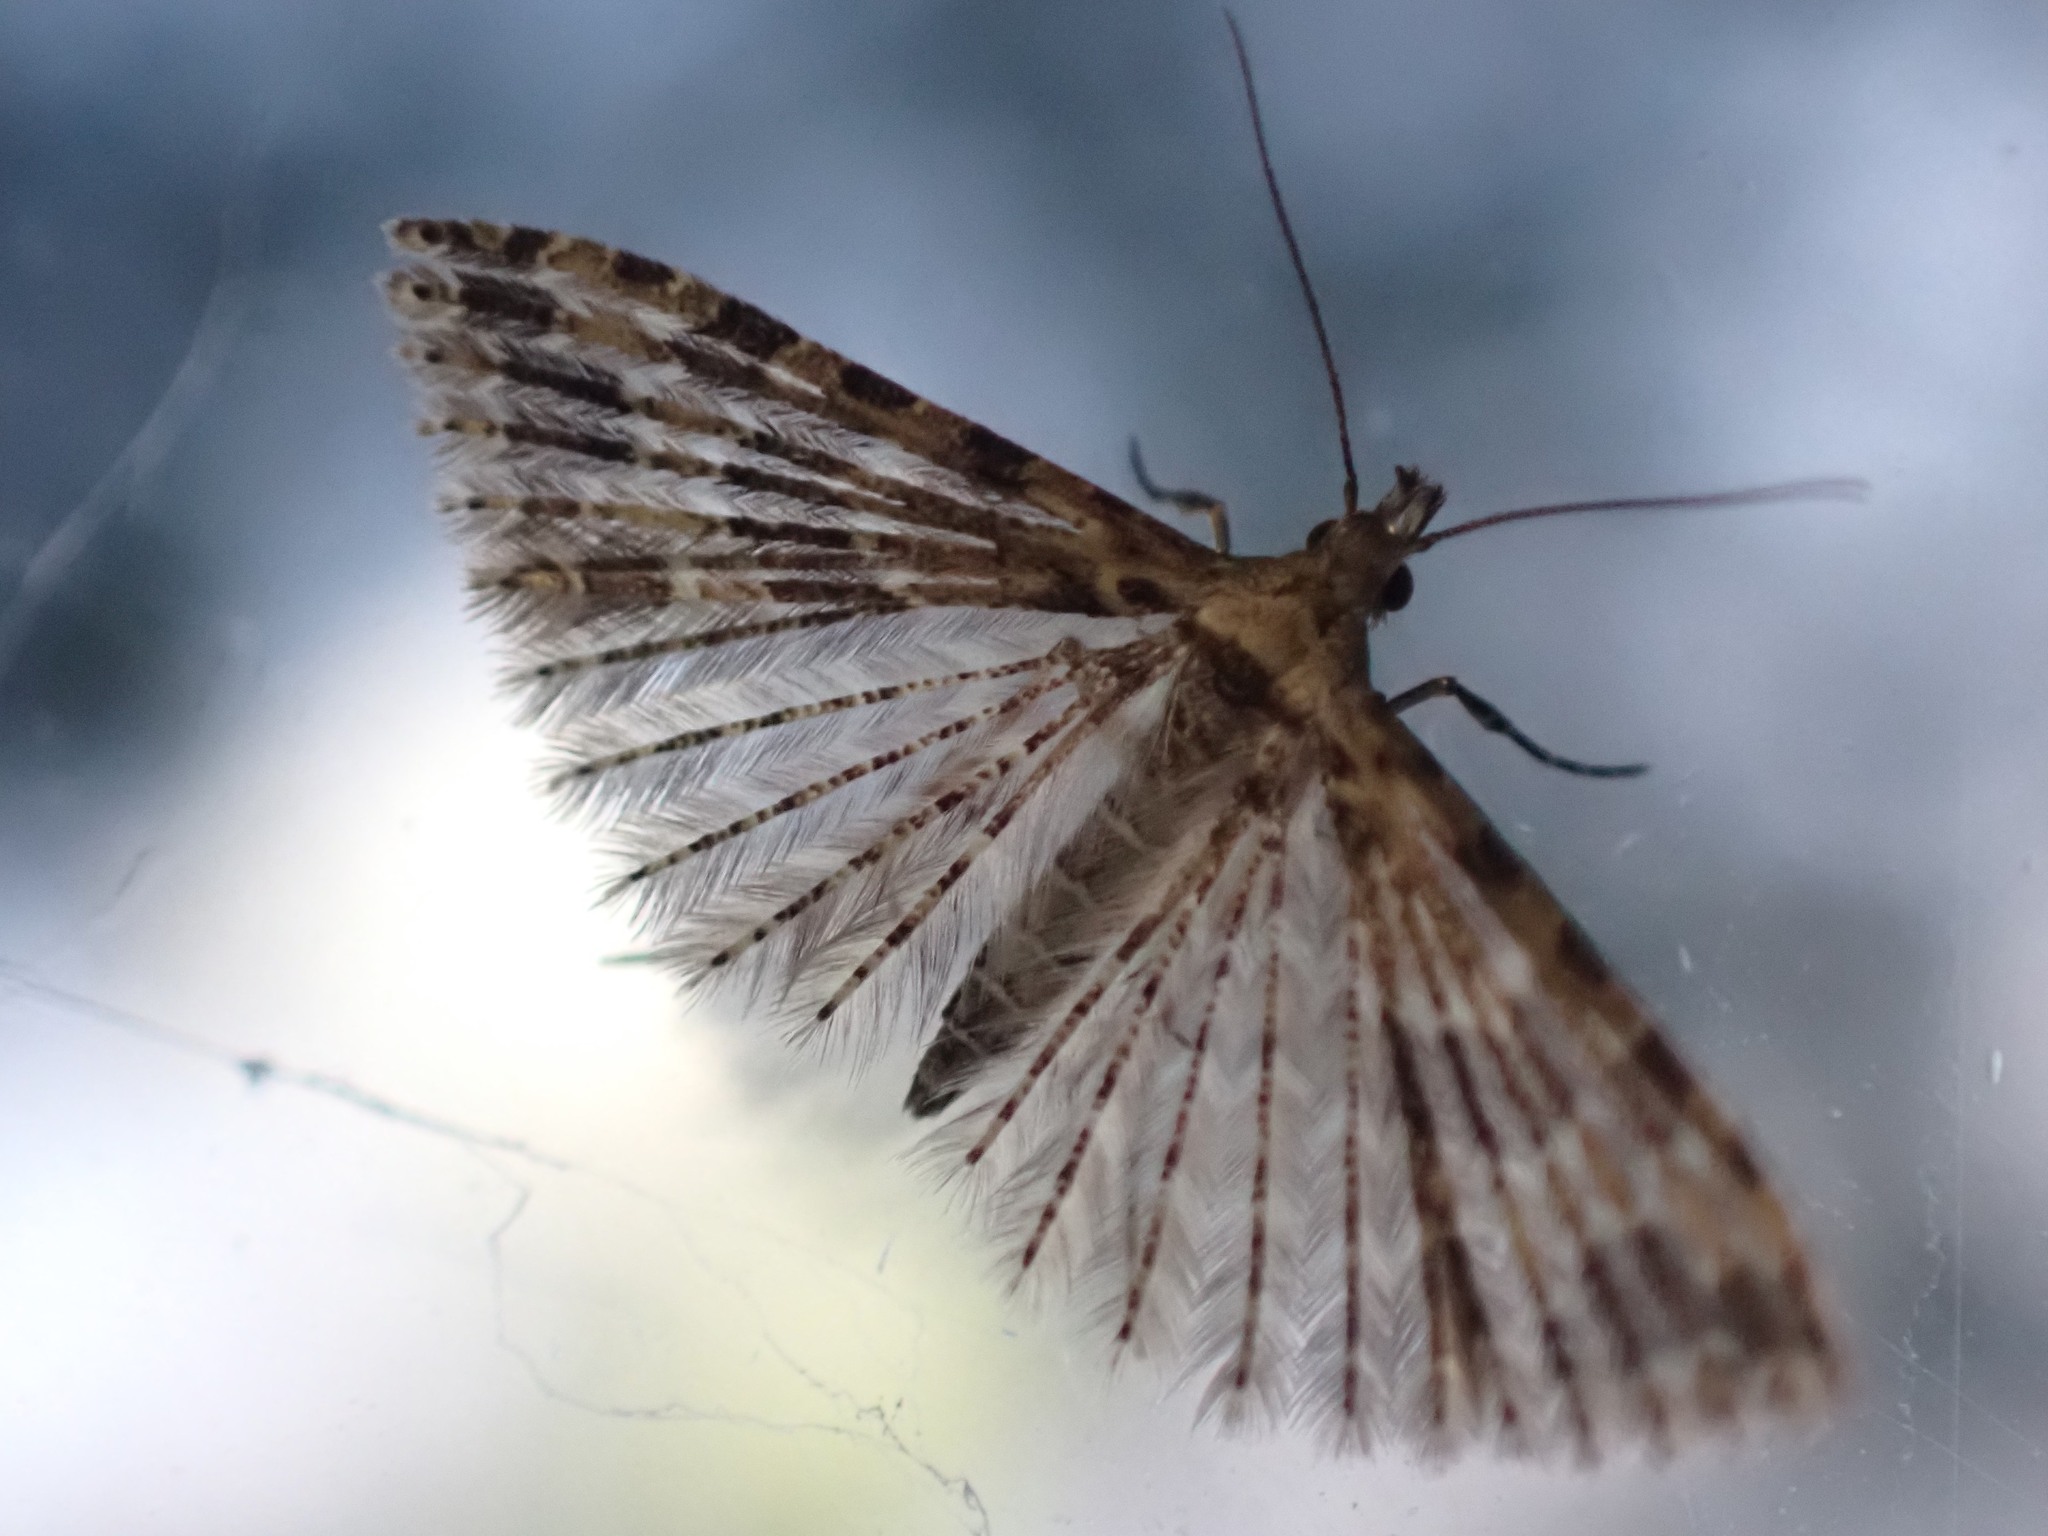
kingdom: Animalia
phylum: Arthropoda
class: Insecta
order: Lepidoptera
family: Alucitidae
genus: Alucita
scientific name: Alucita montana
